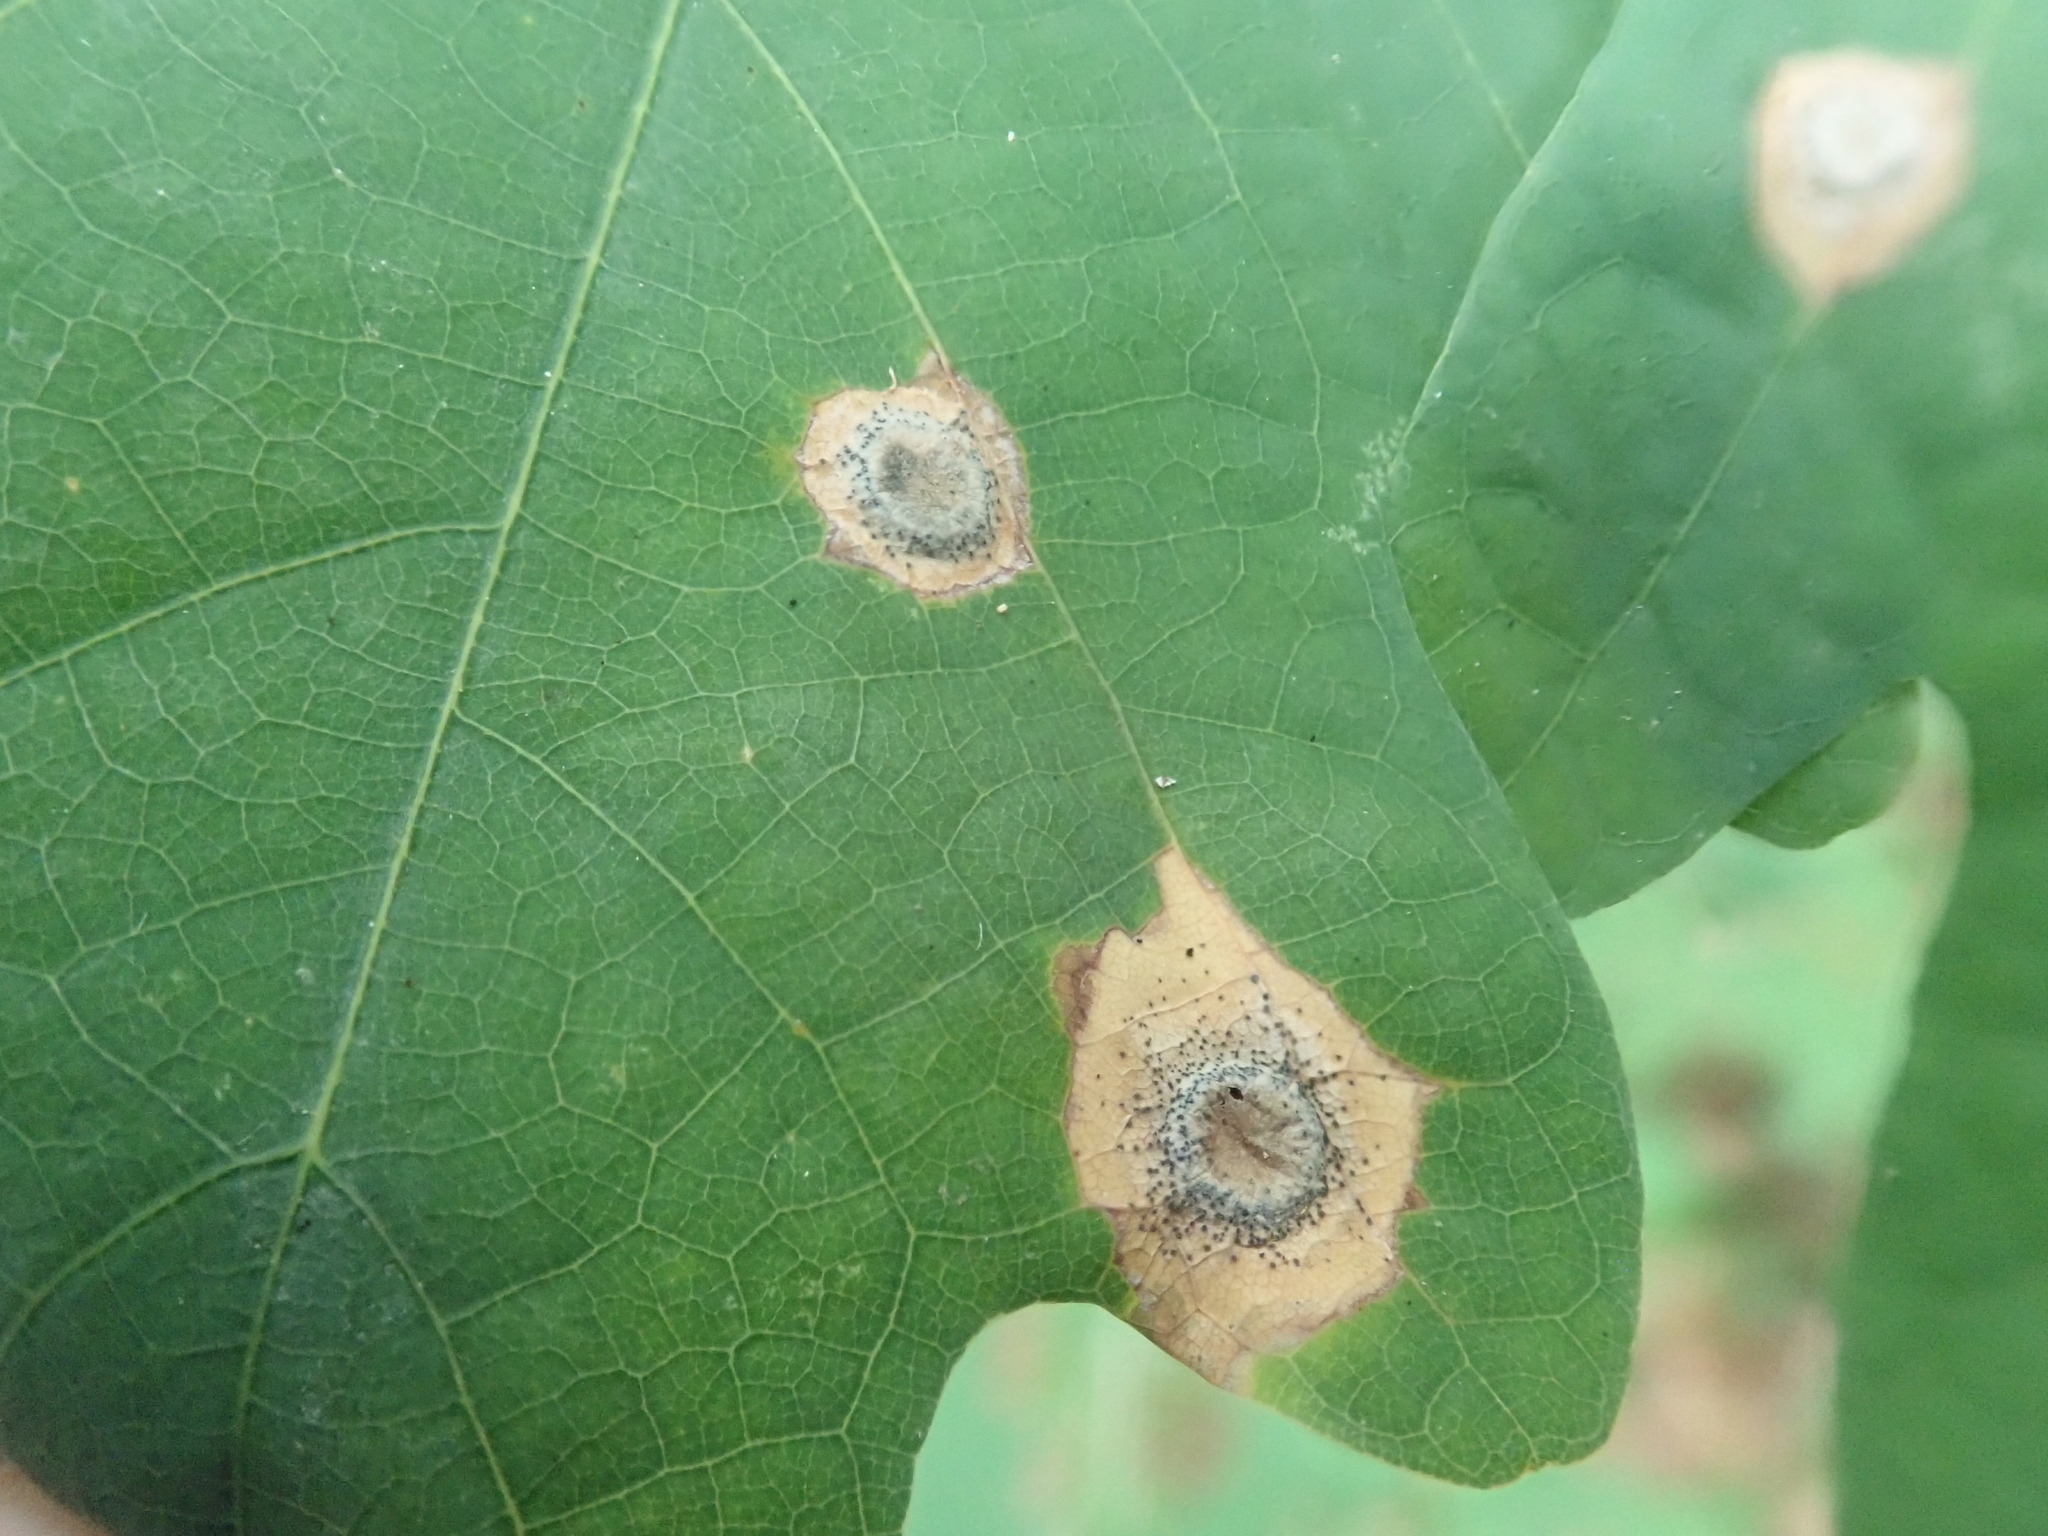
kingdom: Animalia
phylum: Arthropoda
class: Insecta
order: Hymenoptera
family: Cynipidae
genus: Callirhytis
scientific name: Callirhytis
